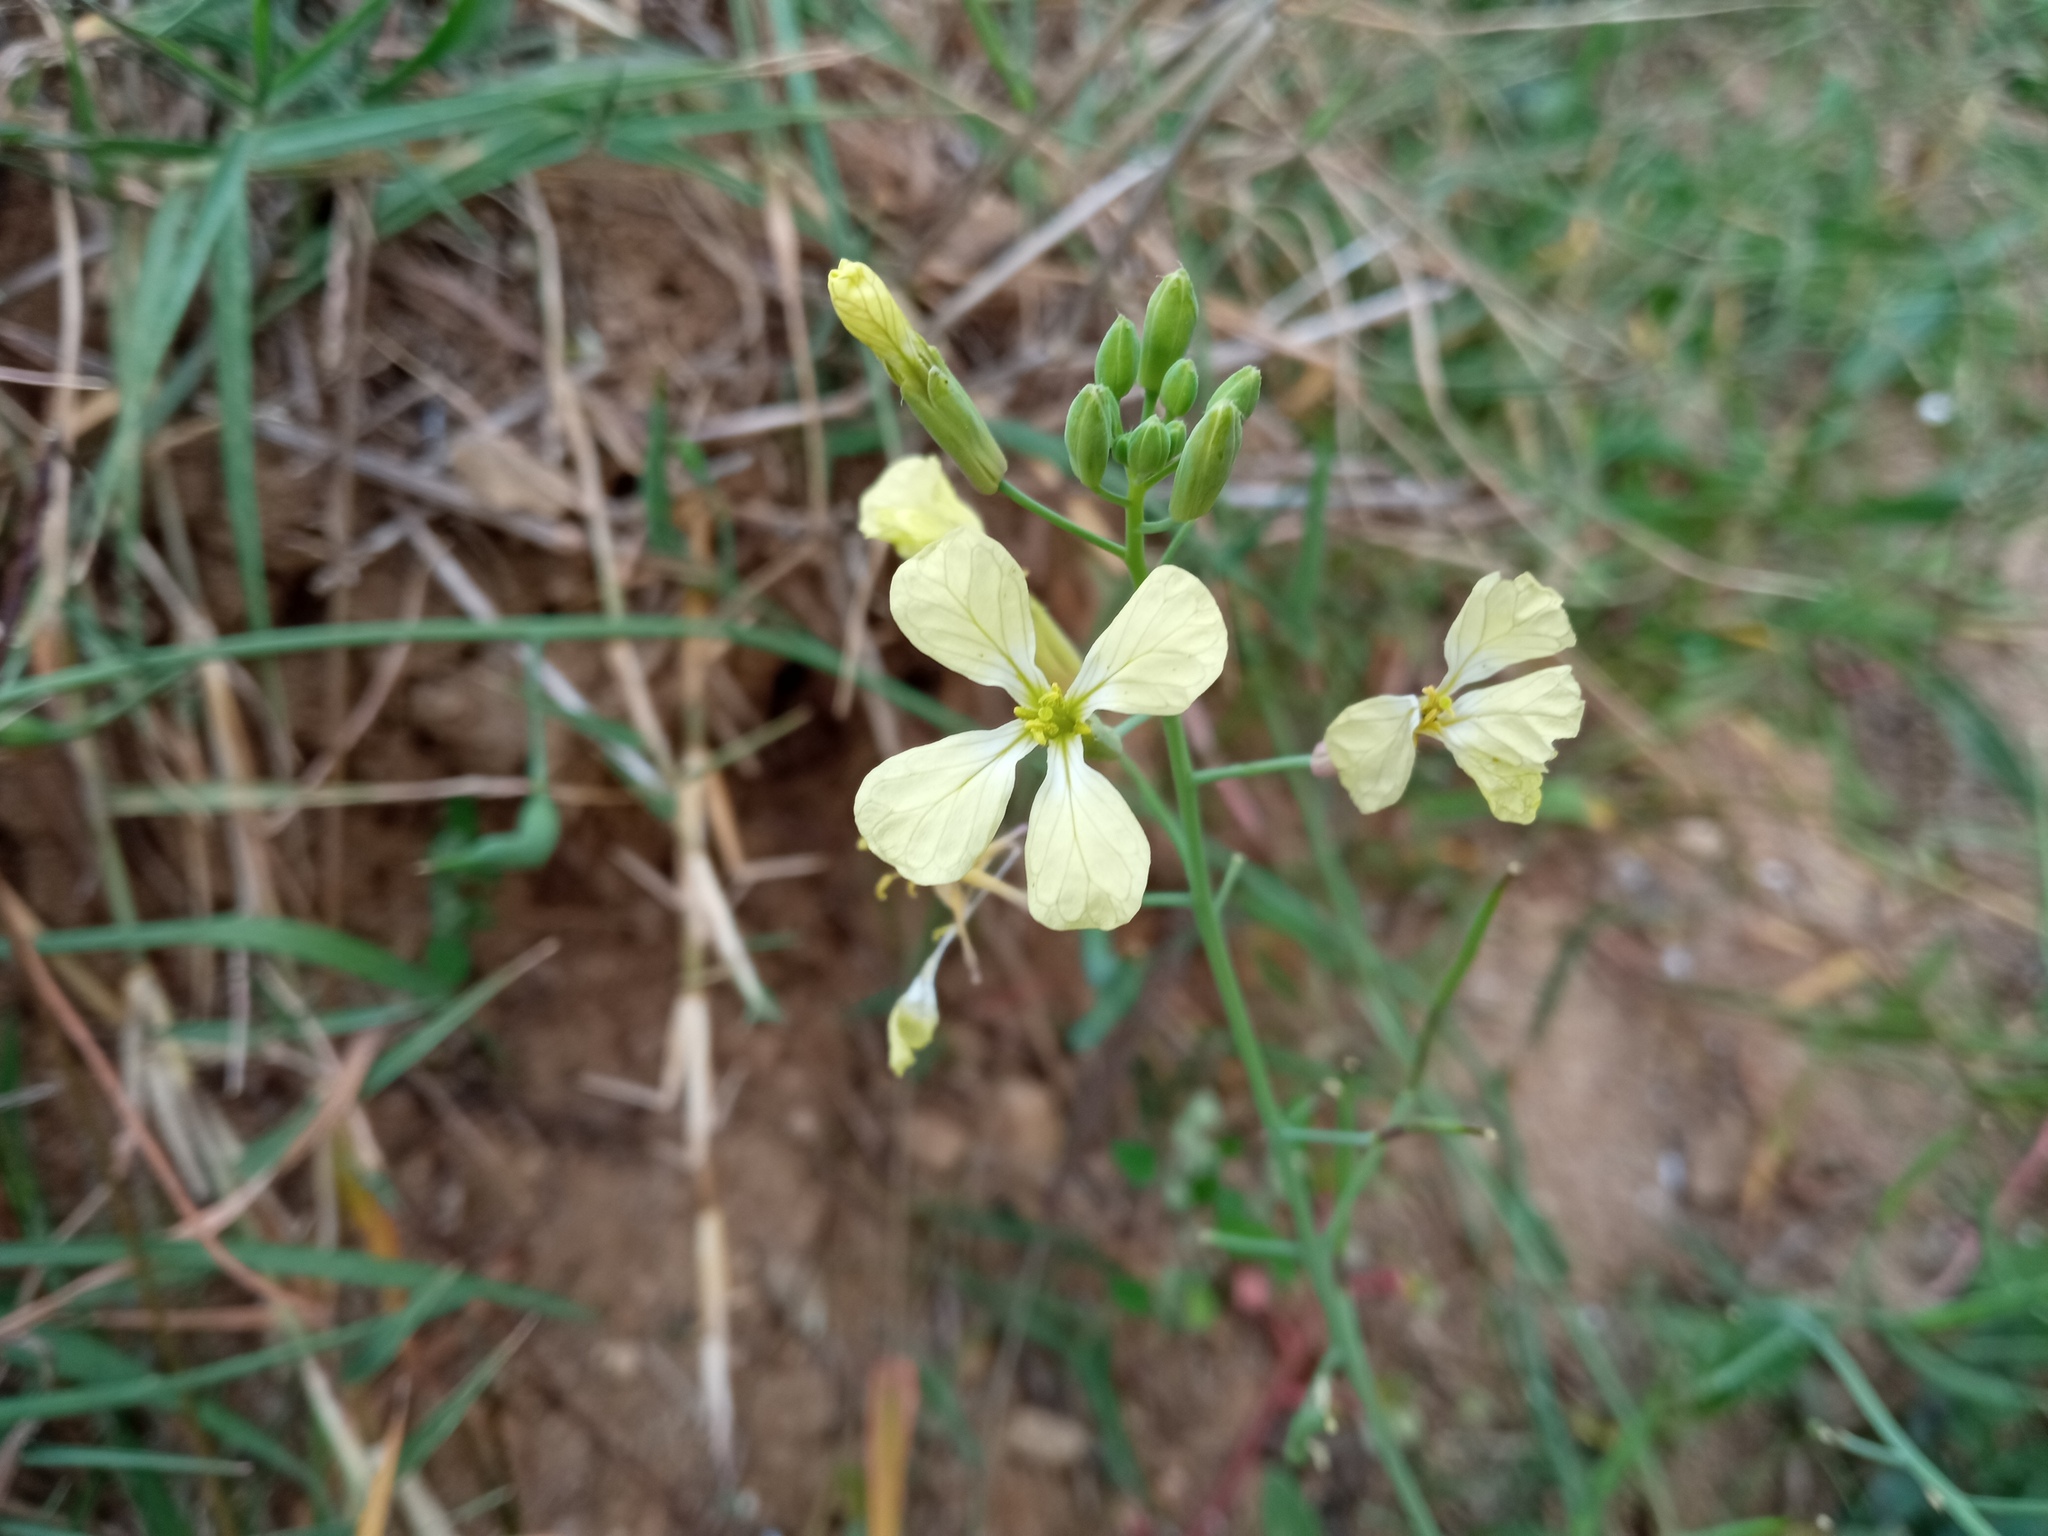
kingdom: Plantae
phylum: Tracheophyta
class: Magnoliopsida
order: Brassicales
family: Brassicaceae
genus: Raphanus
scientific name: Raphanus raphanistrum
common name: Wild radish
